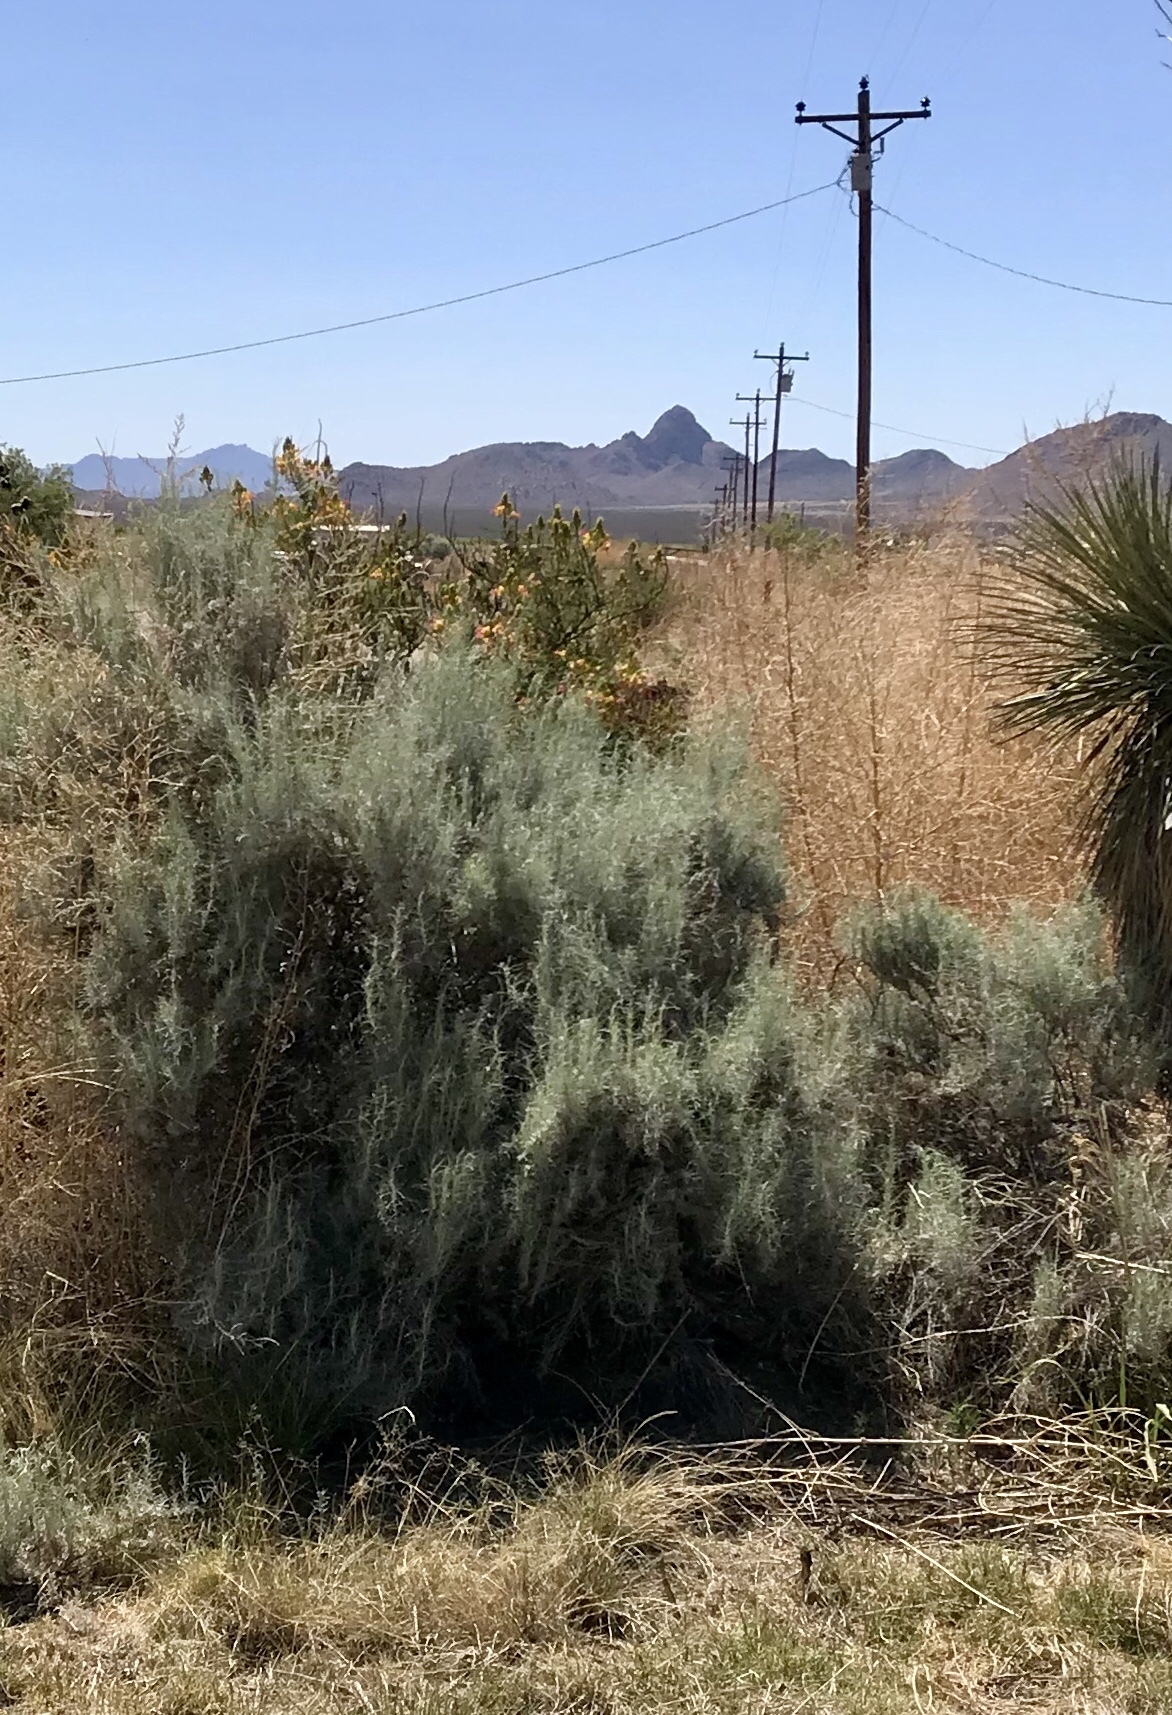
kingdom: Plantae
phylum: Tracheophyta
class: Magnoliopsida
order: Asterales
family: Asteraceae
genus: Artemisia
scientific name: Artemisia filifolia
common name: Sand-sage
